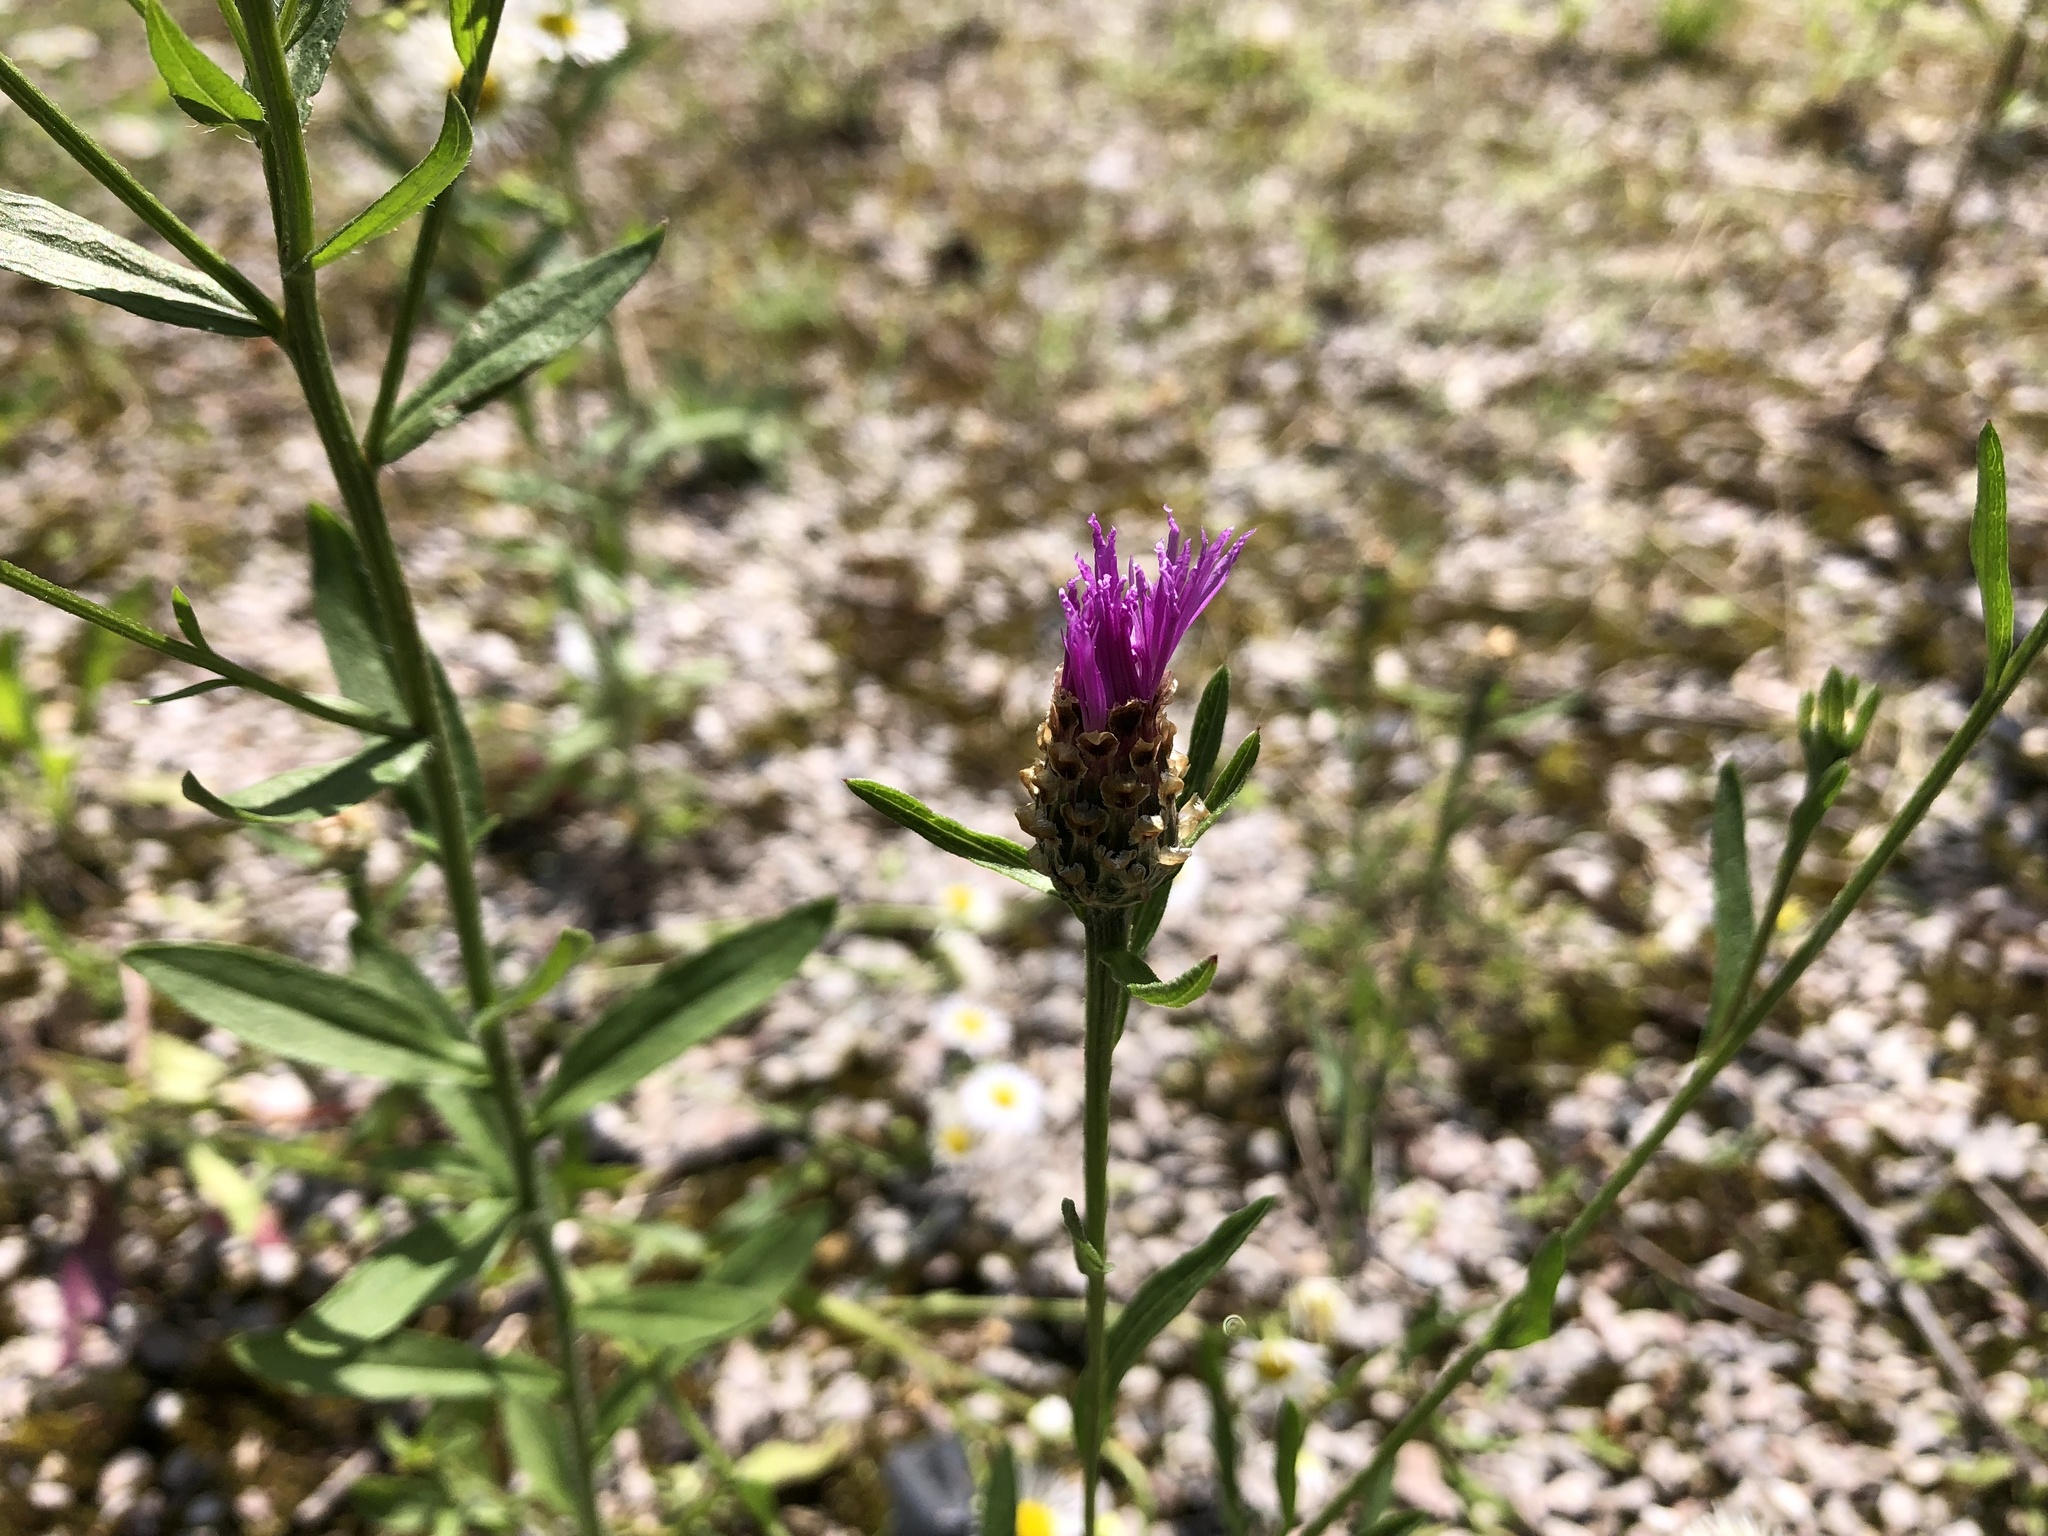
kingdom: Plantae
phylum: Tracheophyta
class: Magnoliopsida
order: Asterales
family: Asteraceae
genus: Centaurea
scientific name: Centaurea jacea
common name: Brown knapweed
